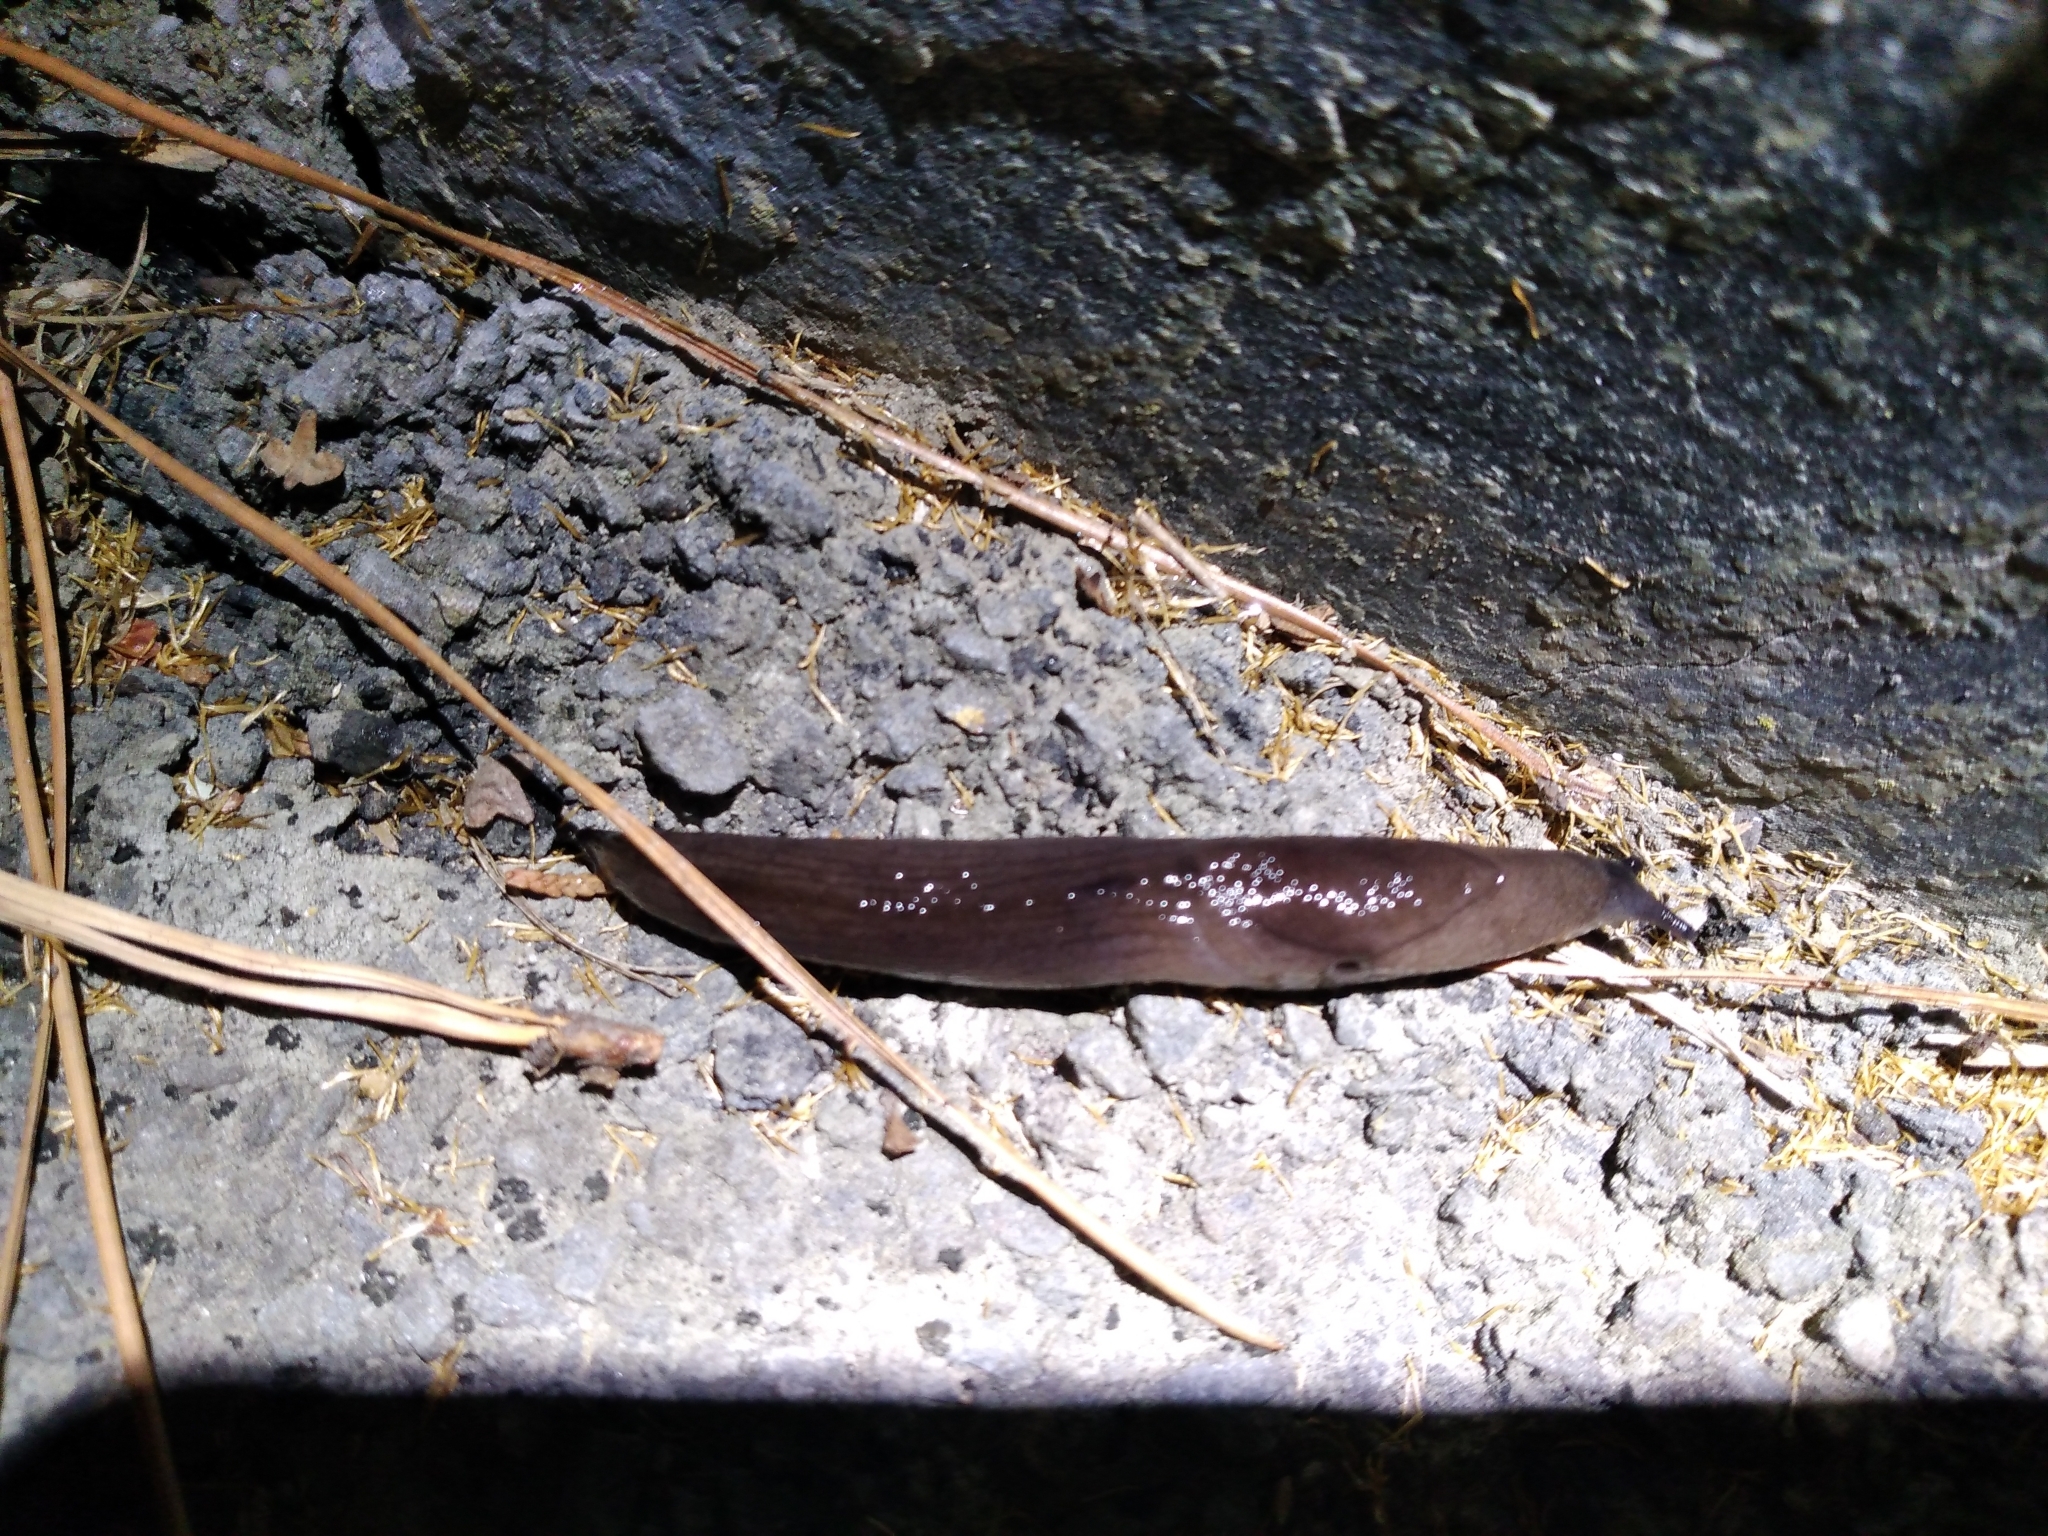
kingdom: Animalia
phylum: Mollusca
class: Gastropoda
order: Stylommatophora
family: Milacidae
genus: Milax
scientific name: Milax gagates
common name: Greenhouse slug
